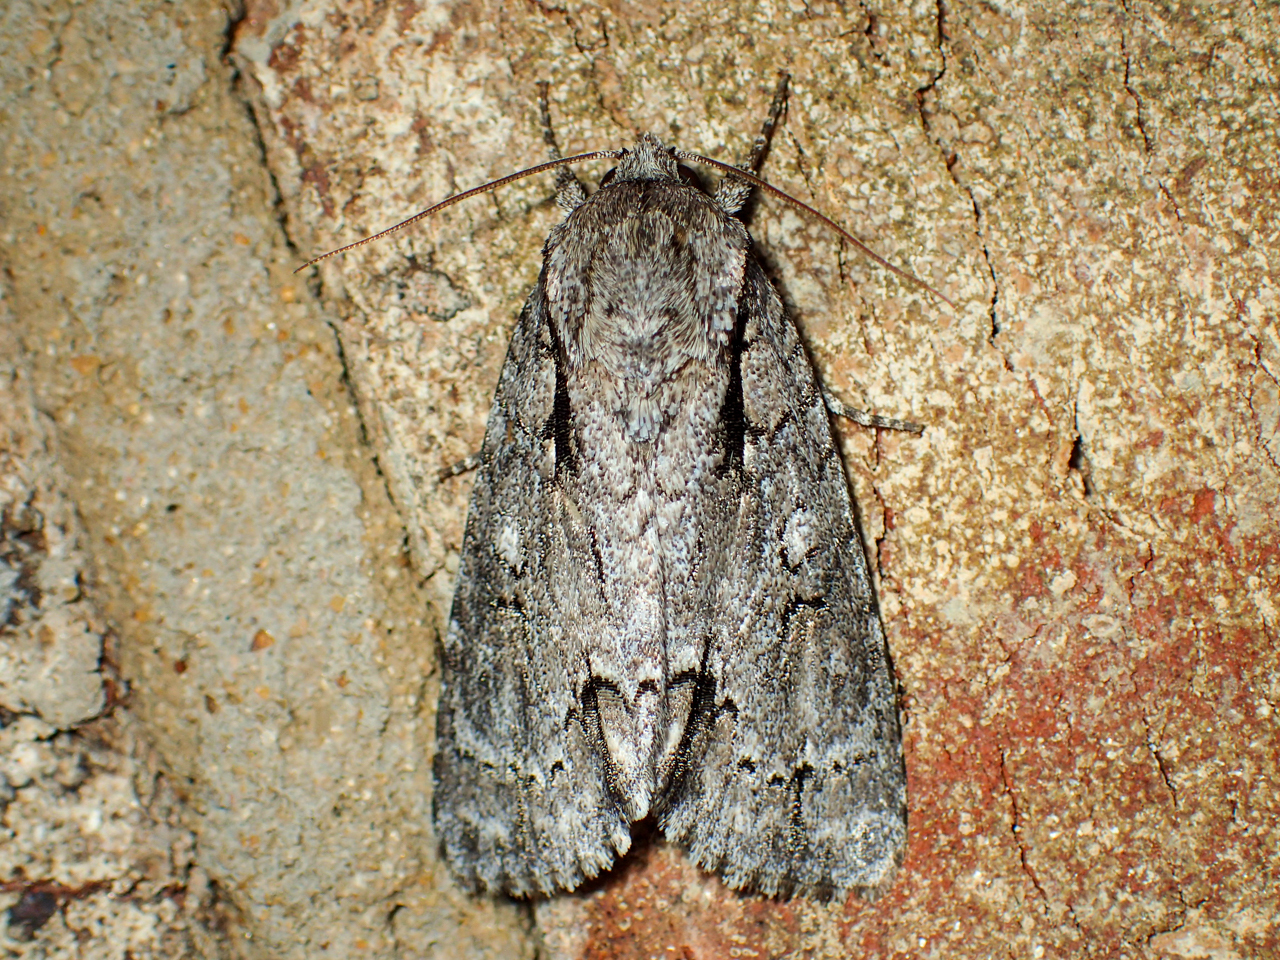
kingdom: Animalia
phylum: Arthropoda
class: Insecta
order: Lepidoptera
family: Noctuidae
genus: Acronicta
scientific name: Acronicta hasta
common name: Cherry dagger
